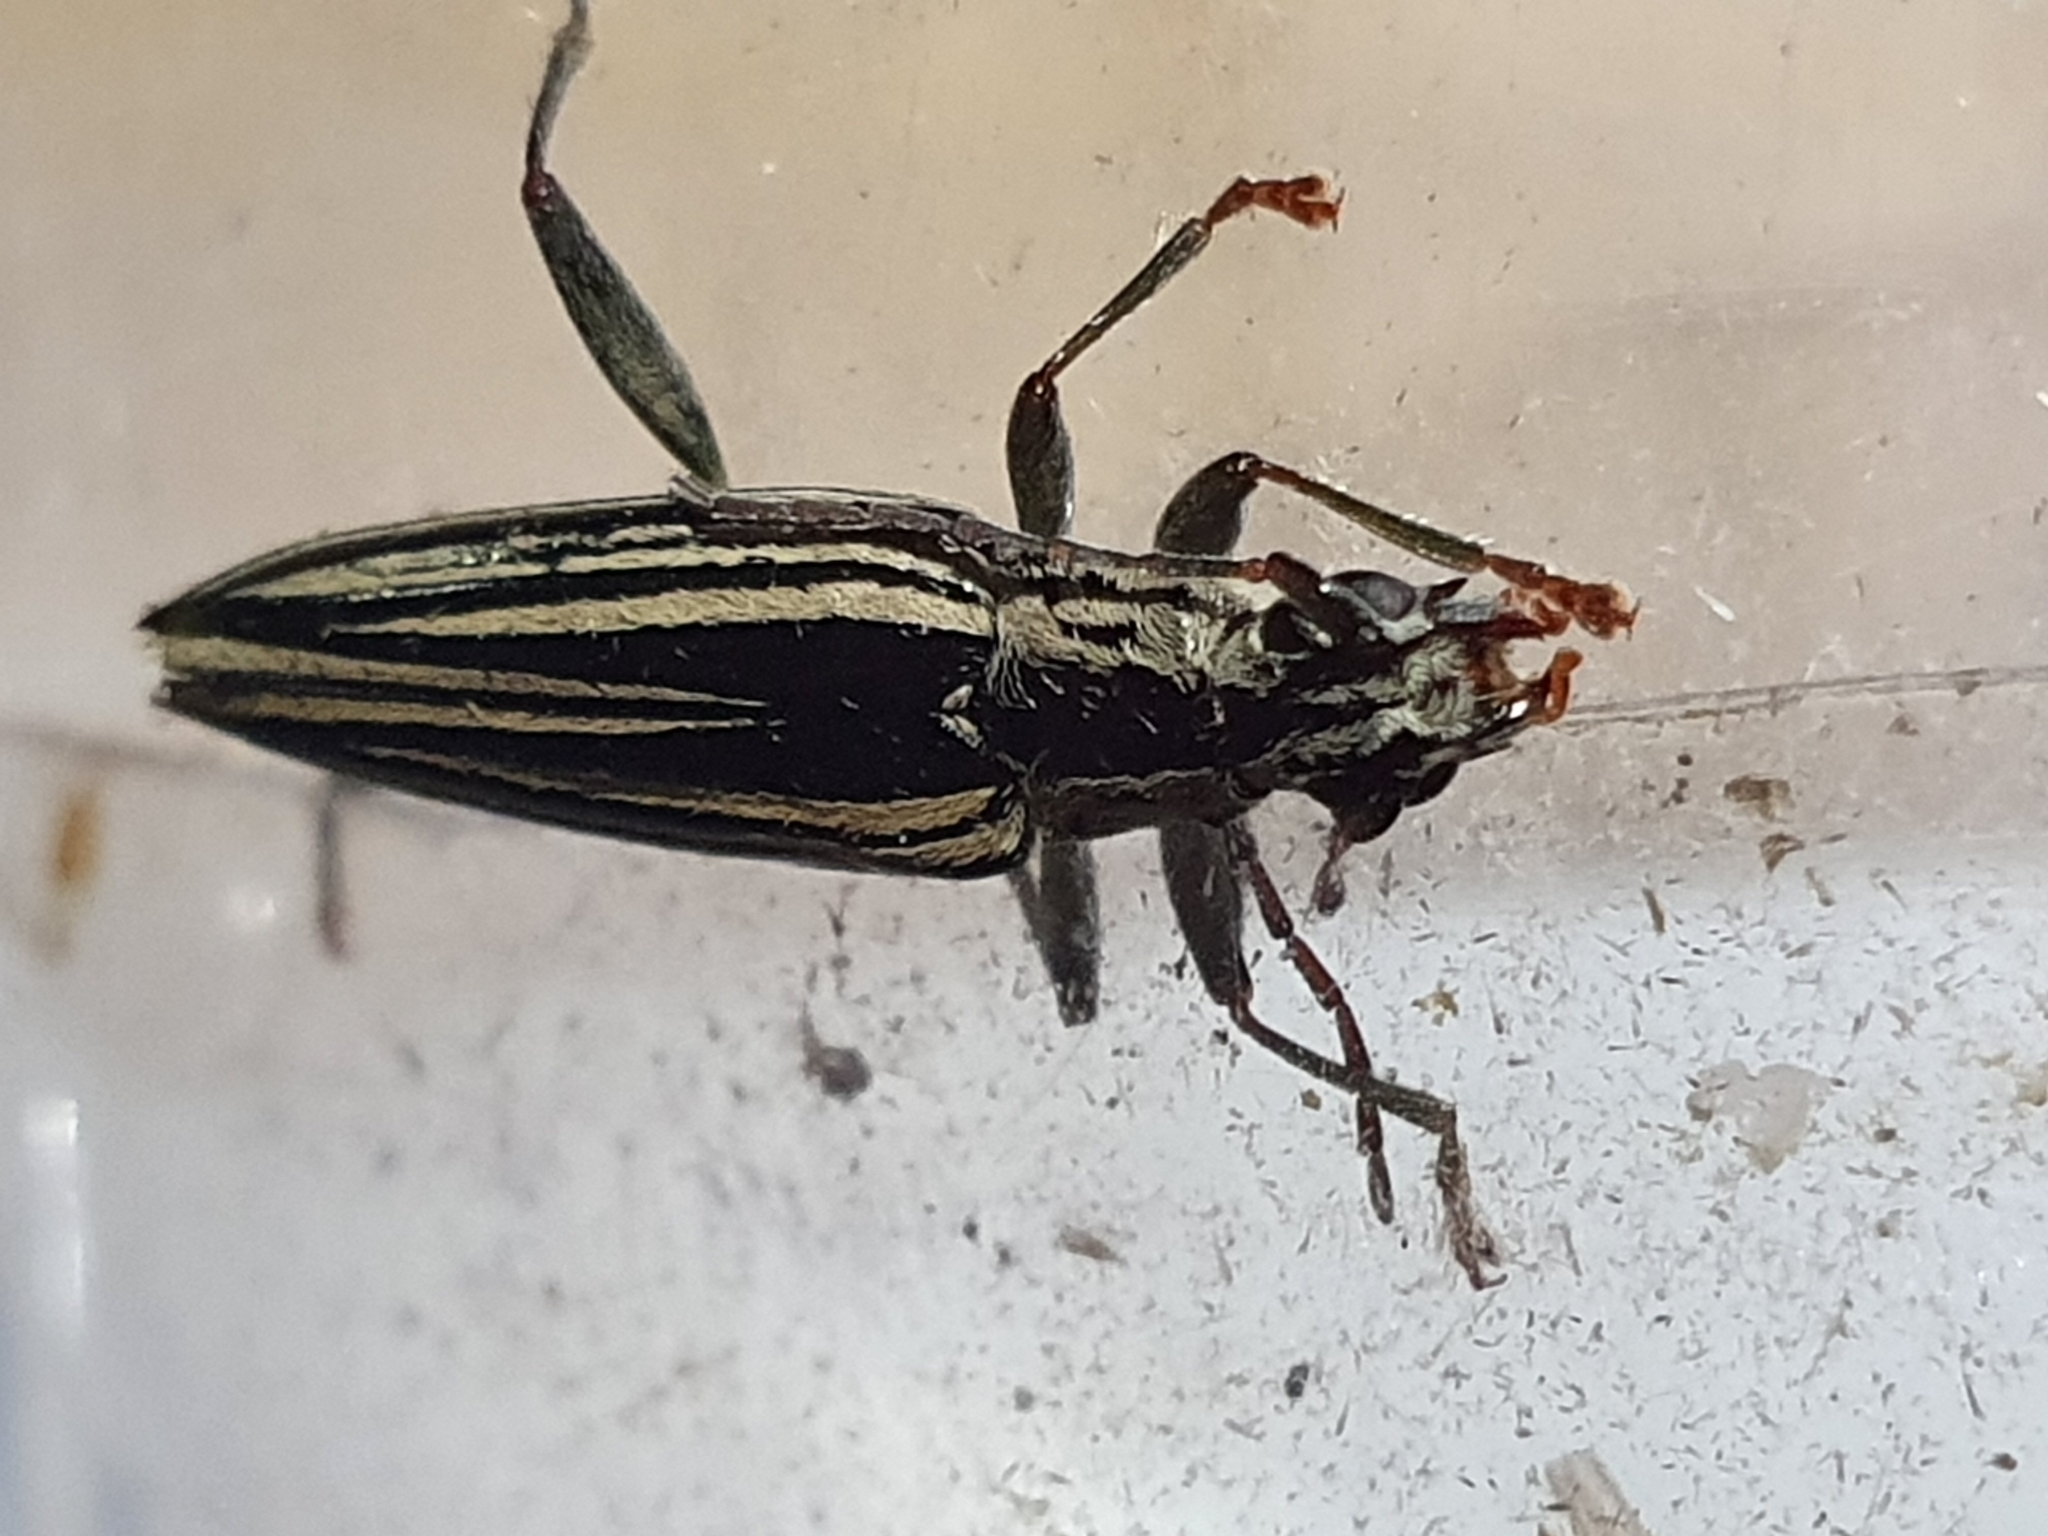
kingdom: Animalia
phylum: Arthropoda
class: Insecta
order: Coleoptera
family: Cerambycidae
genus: Coptomma
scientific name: Coptomma sulcatum
